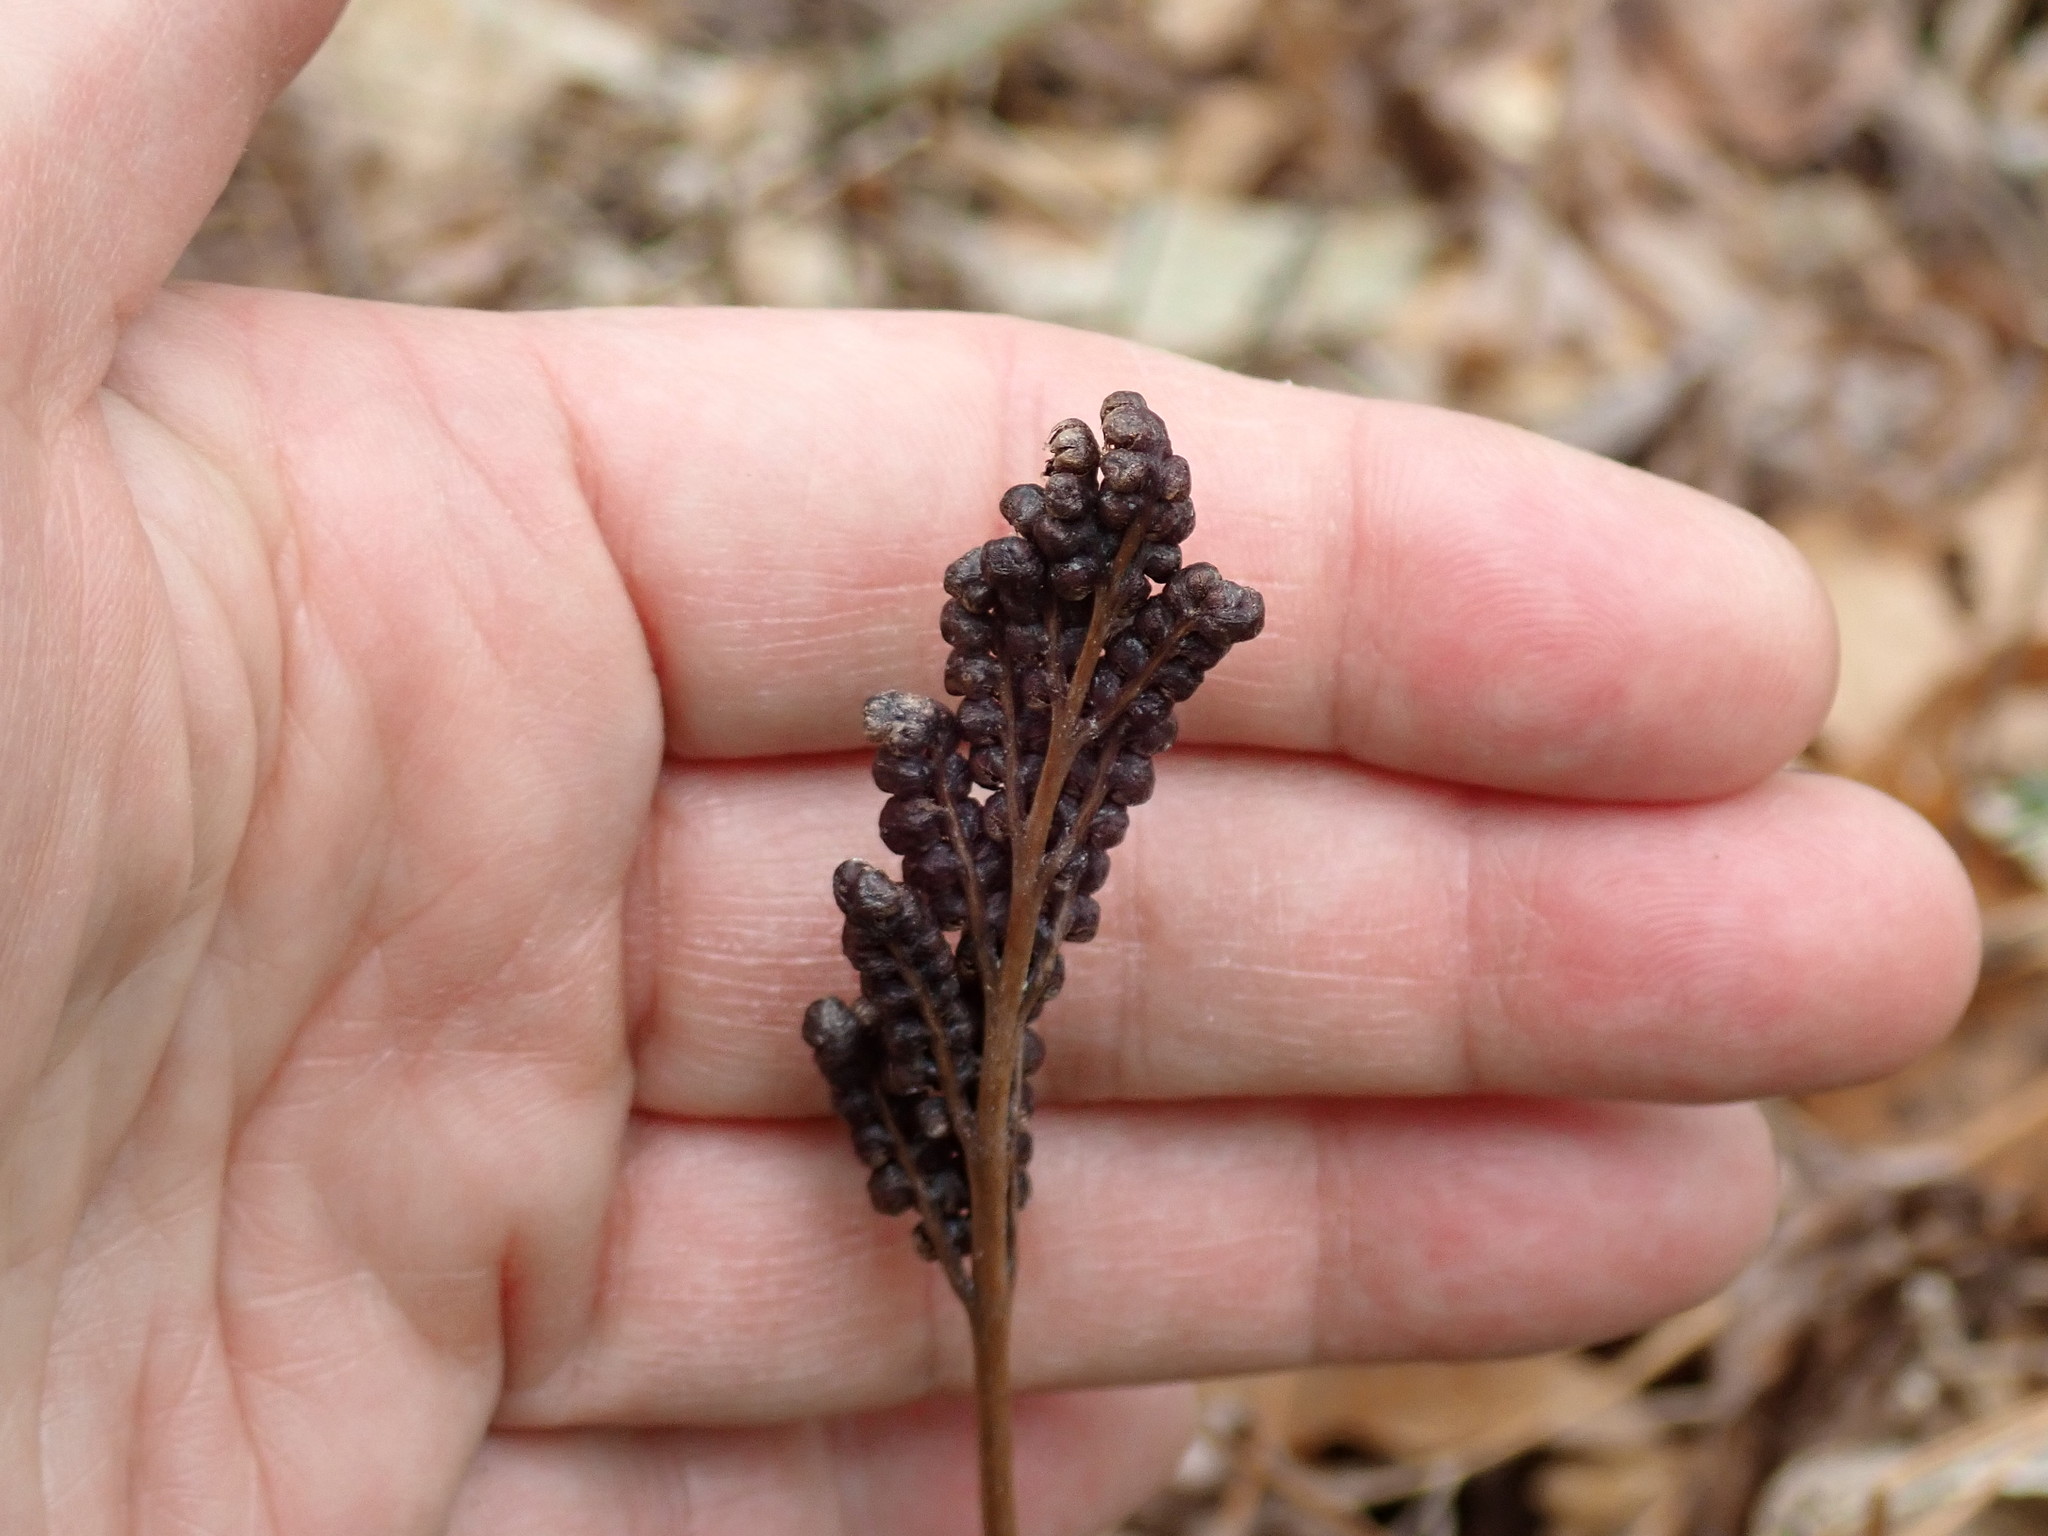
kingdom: Plantae
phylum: Tracheophyta
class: Polypodiopsida
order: Polypodiales
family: Onocleaceae
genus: Onoclea
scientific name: Onoclea sensibilis
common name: Sensitive fern
